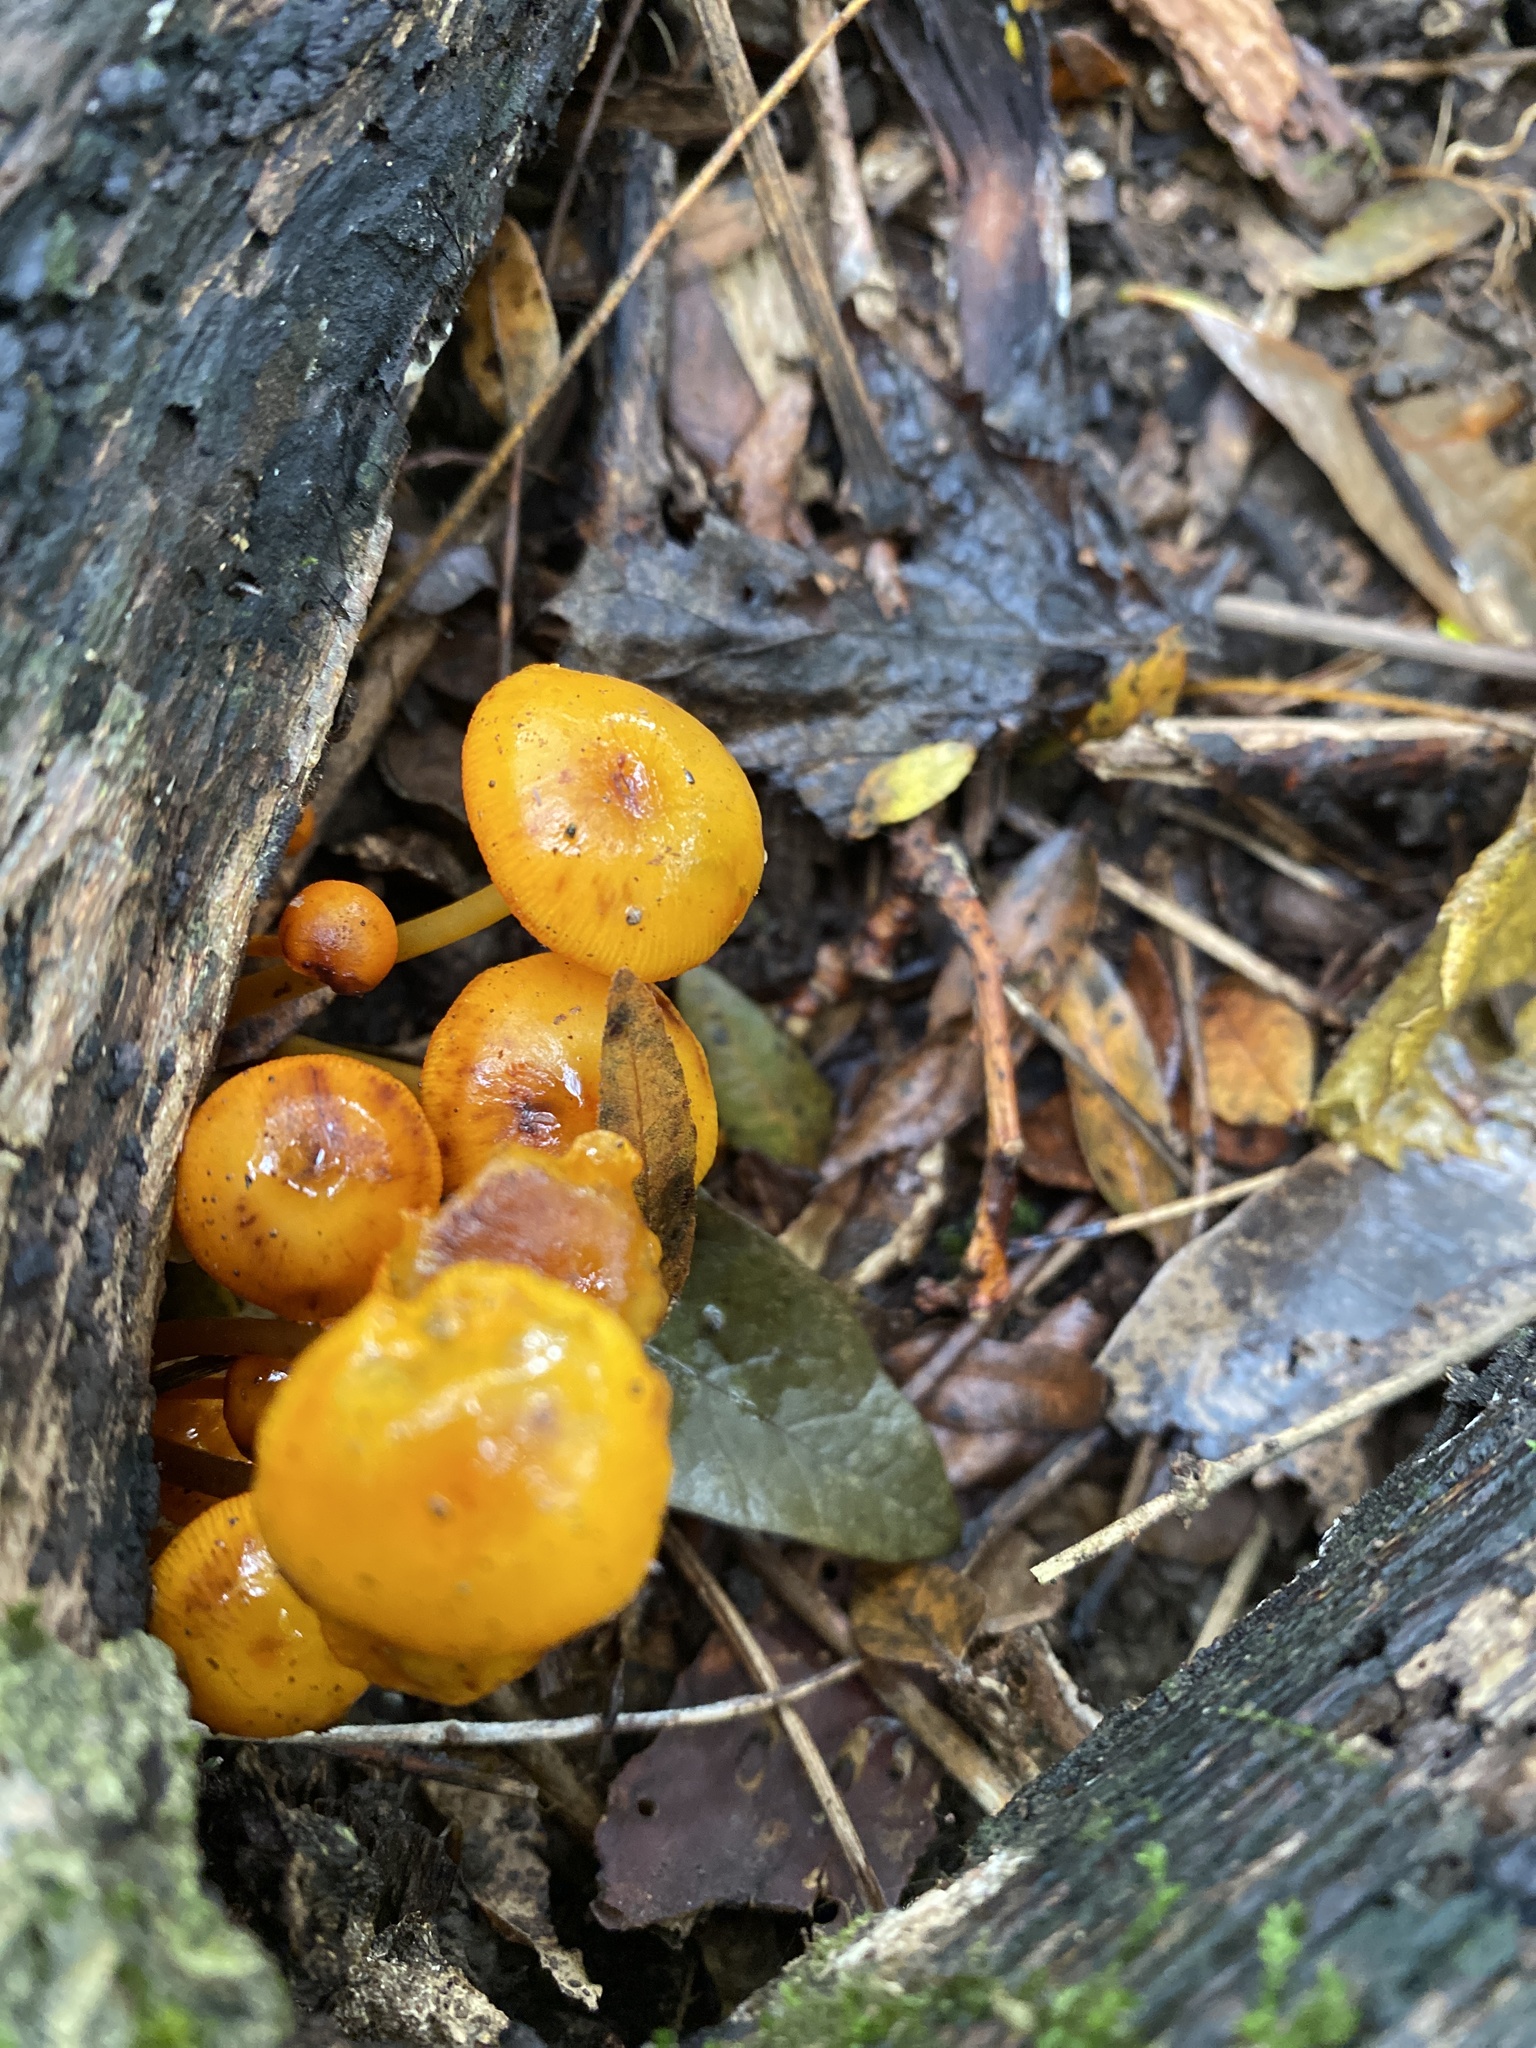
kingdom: Fungi
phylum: Basidiomycota
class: Agaricomycetes
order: Agaricales
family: Mycenaceae
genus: Mycena
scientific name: Mycena leaiana
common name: Orange mycena
